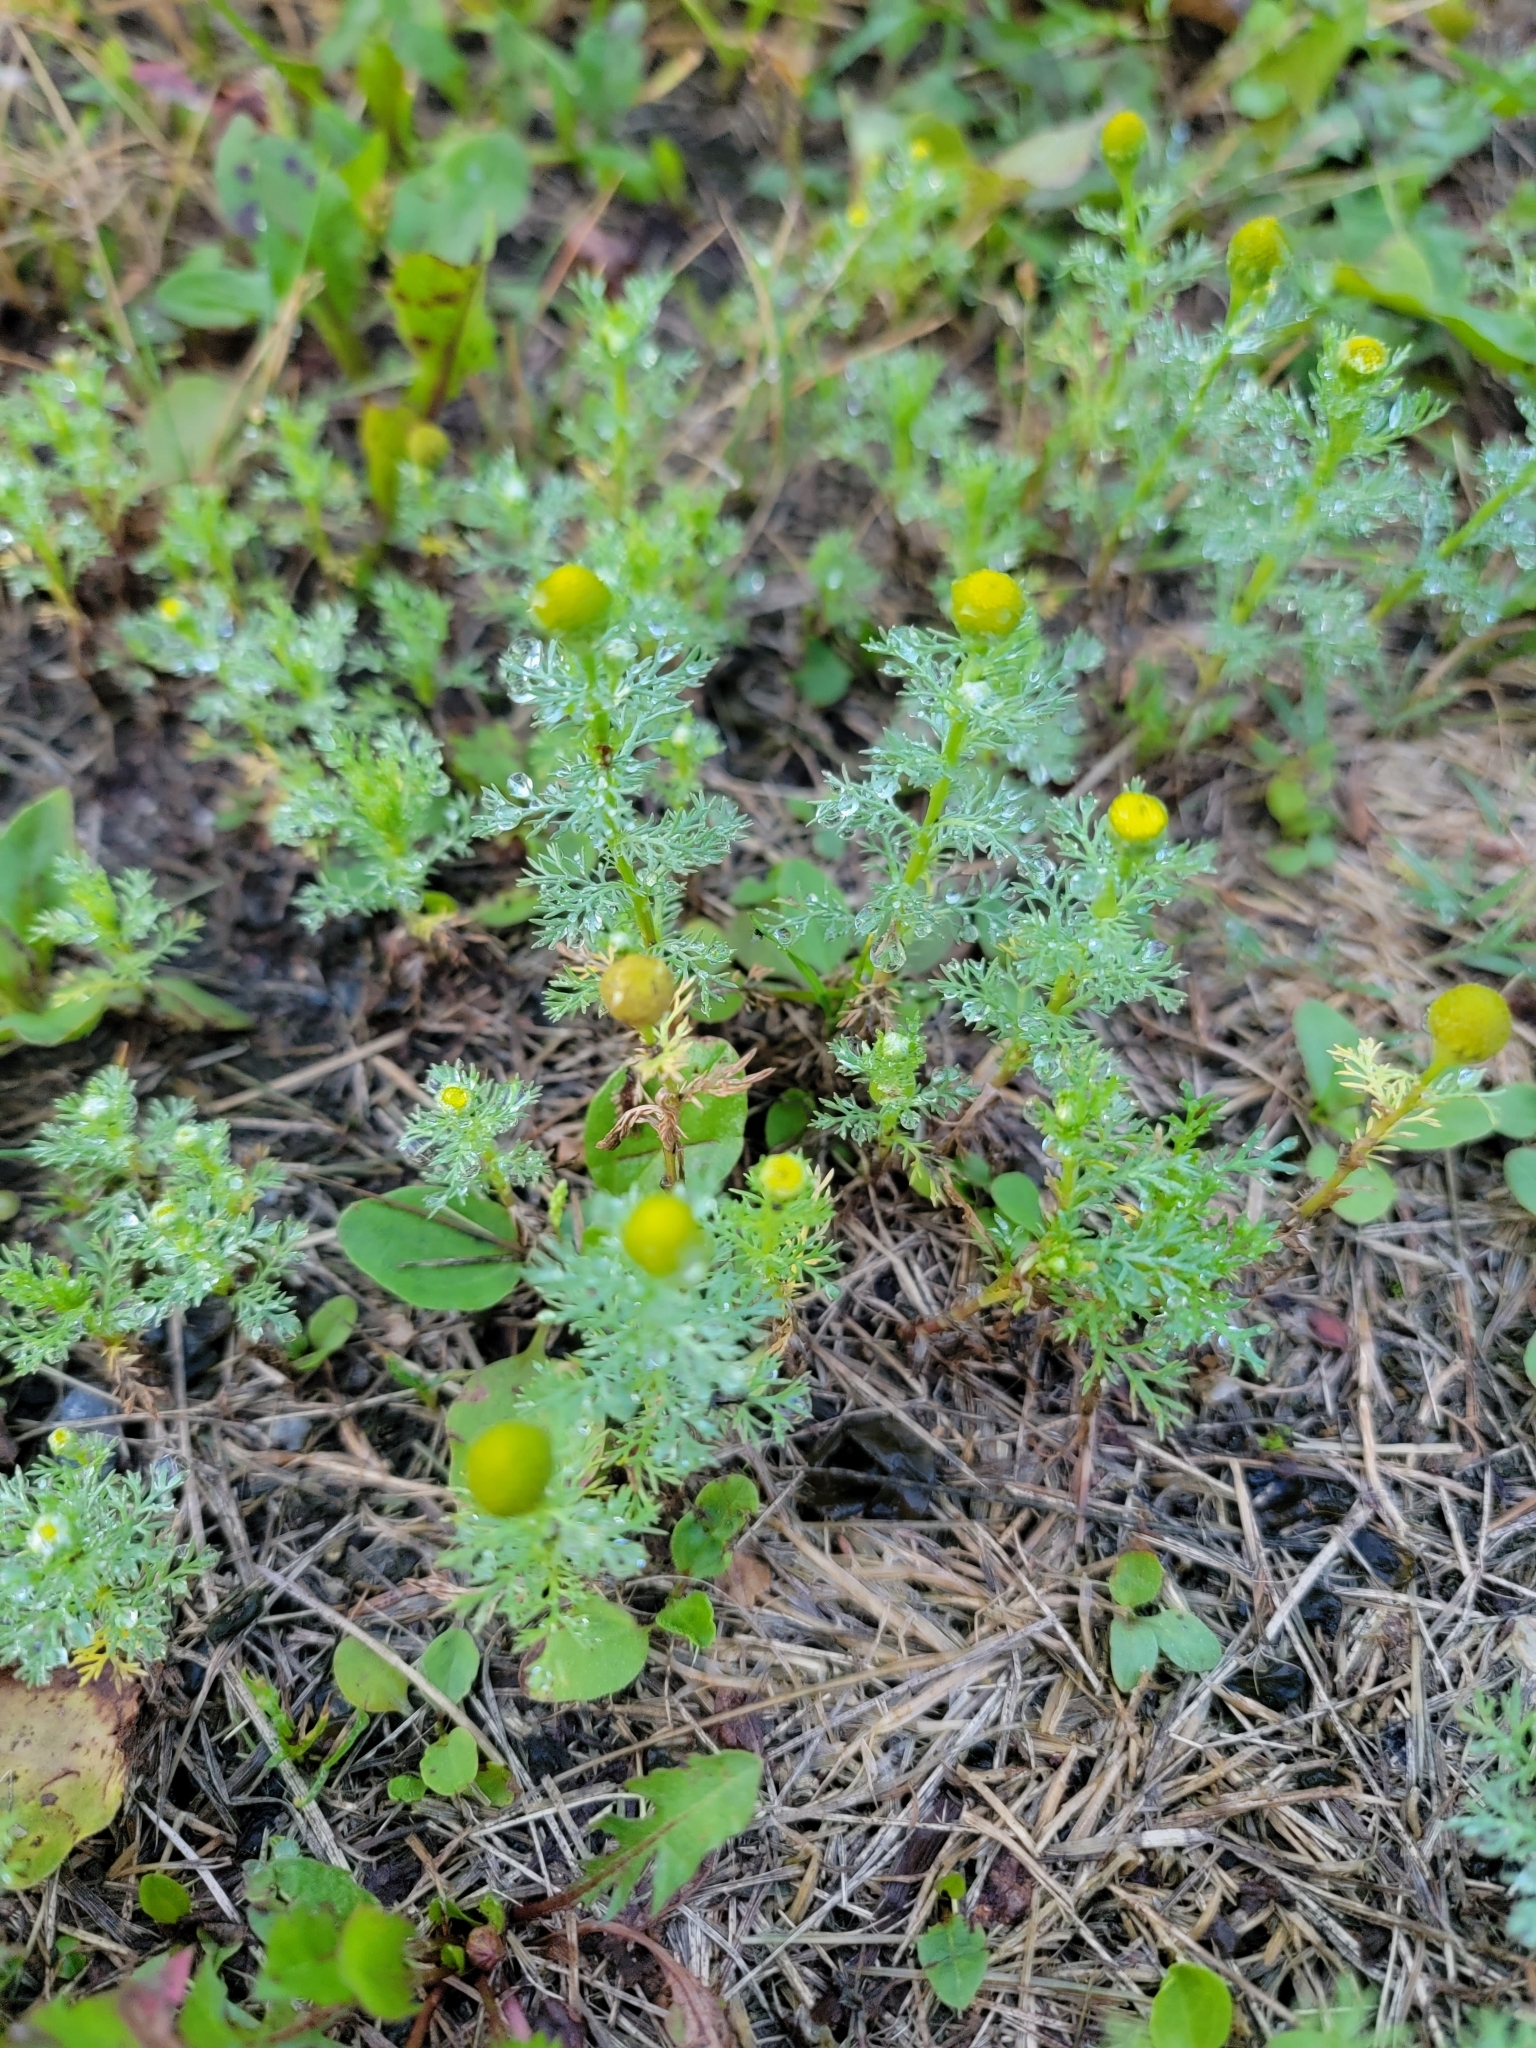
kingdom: Plantae
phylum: Tracheophyta
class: Magnoliopsida
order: Asterales
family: Asteraceae
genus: Matricaria
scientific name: Matricaria discoidea
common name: Disc mayweed
